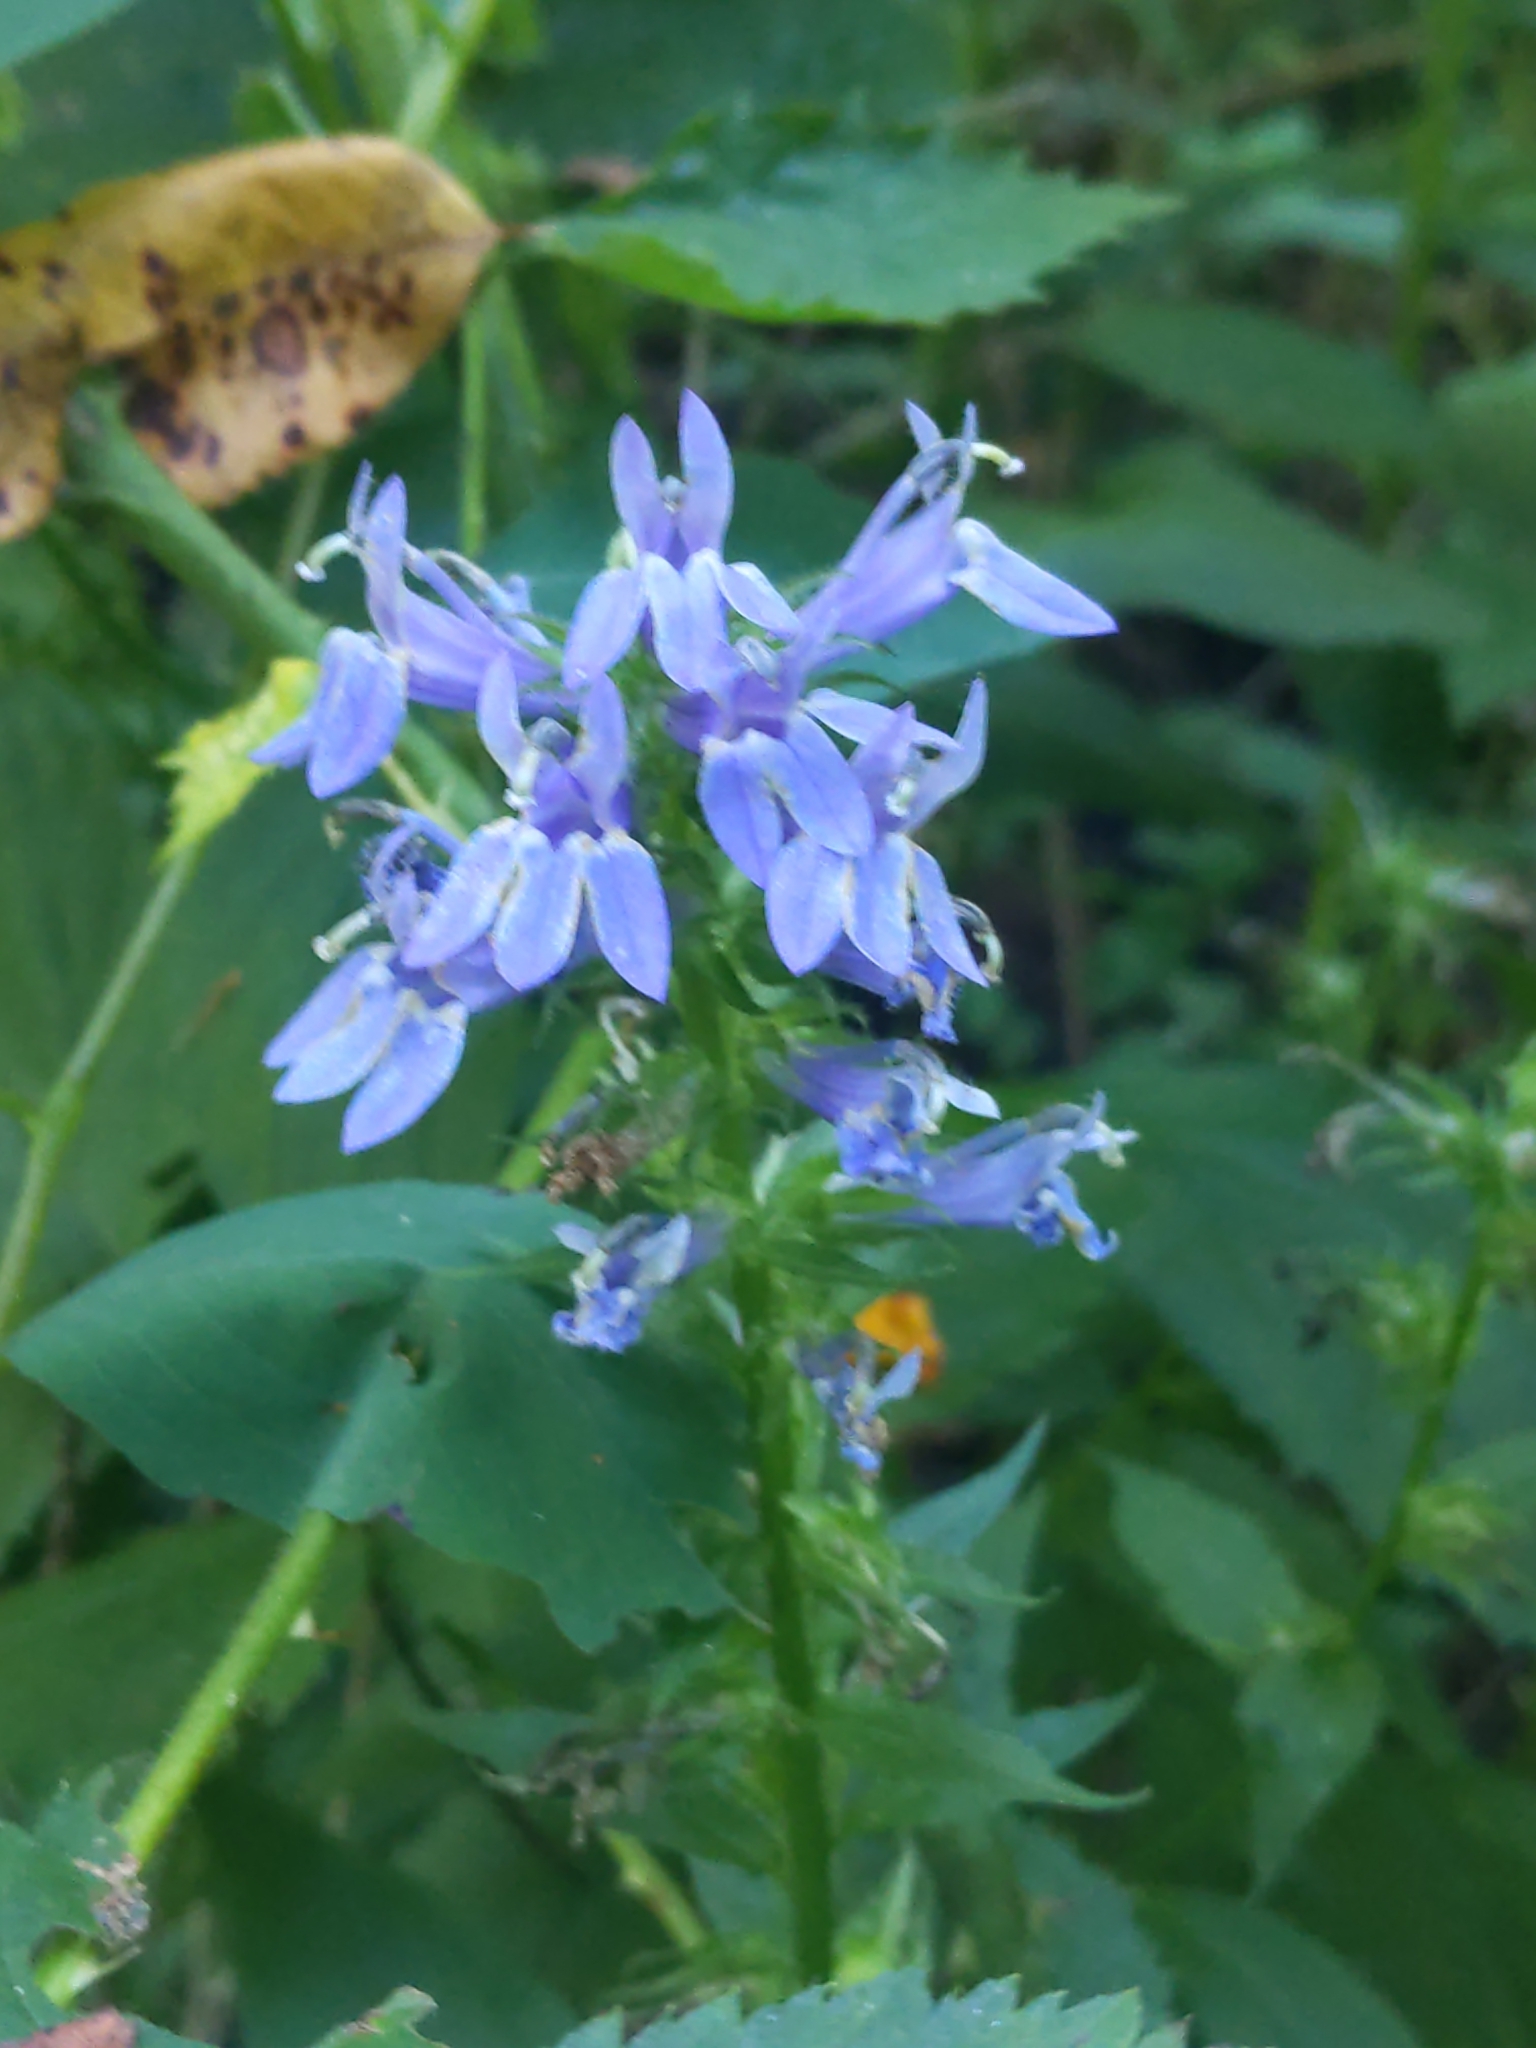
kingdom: Plantae
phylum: Tracheophyta
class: Magnoliopsida
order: Asterales
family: Campanulaceae
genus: Lobelia
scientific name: Lobelia siphilitica
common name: Great lobelia
